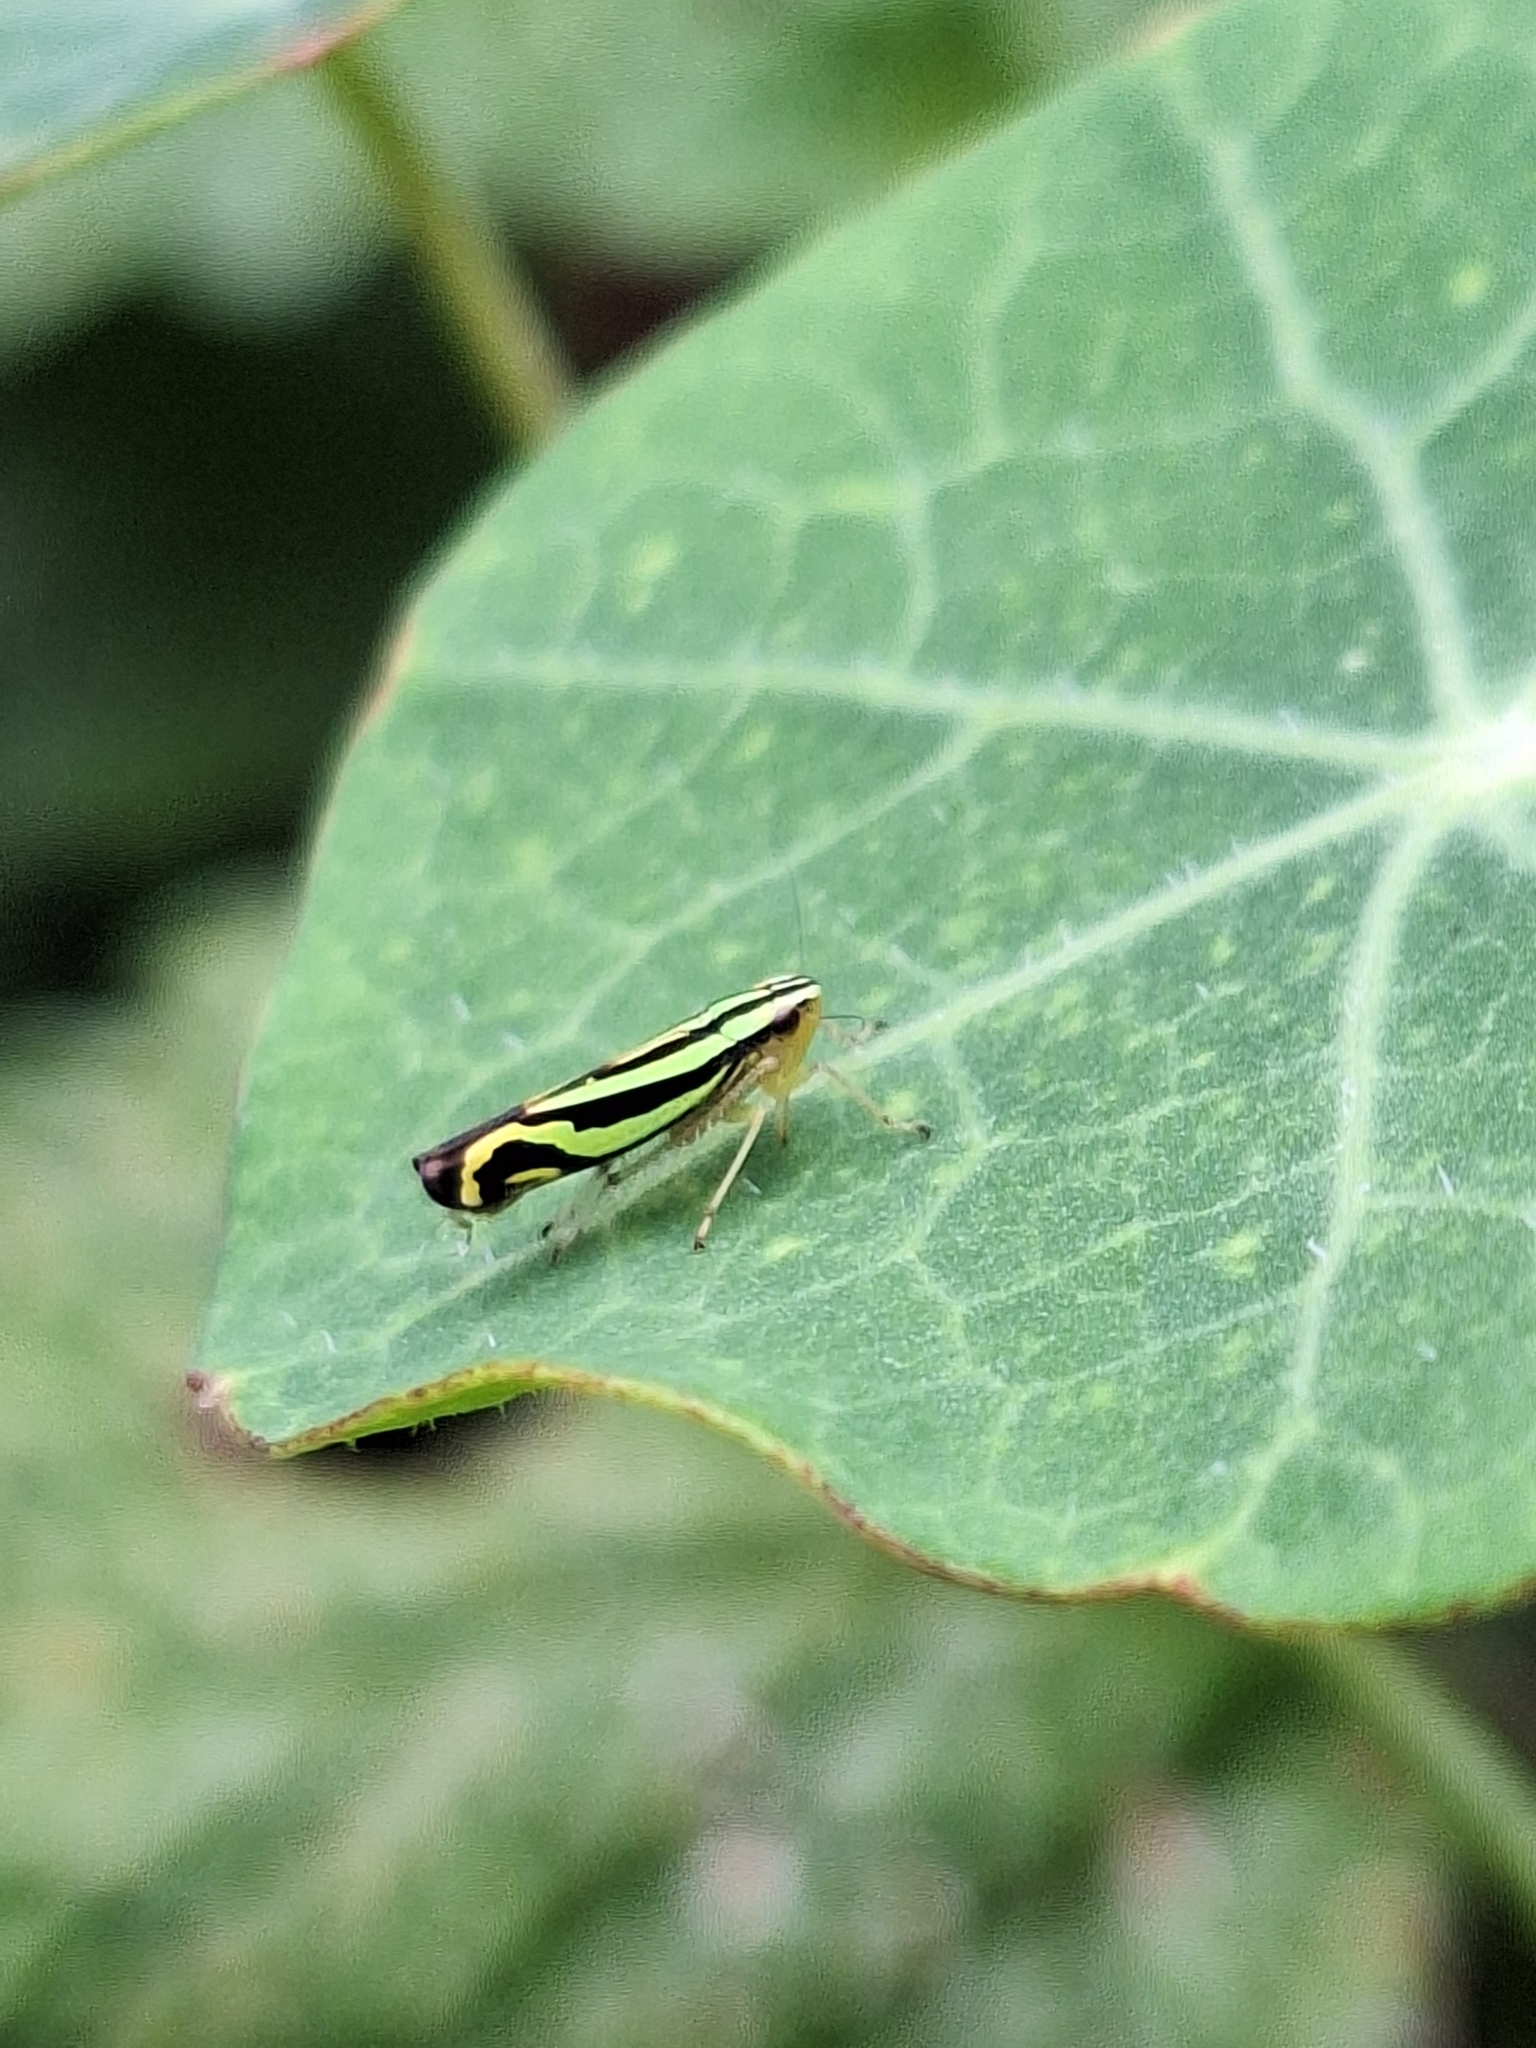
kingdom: Animalia
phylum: Arthropoda
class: Insecta
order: Hemiptera
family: Cicadellidae
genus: Sibovia
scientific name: Sibovia sagata
